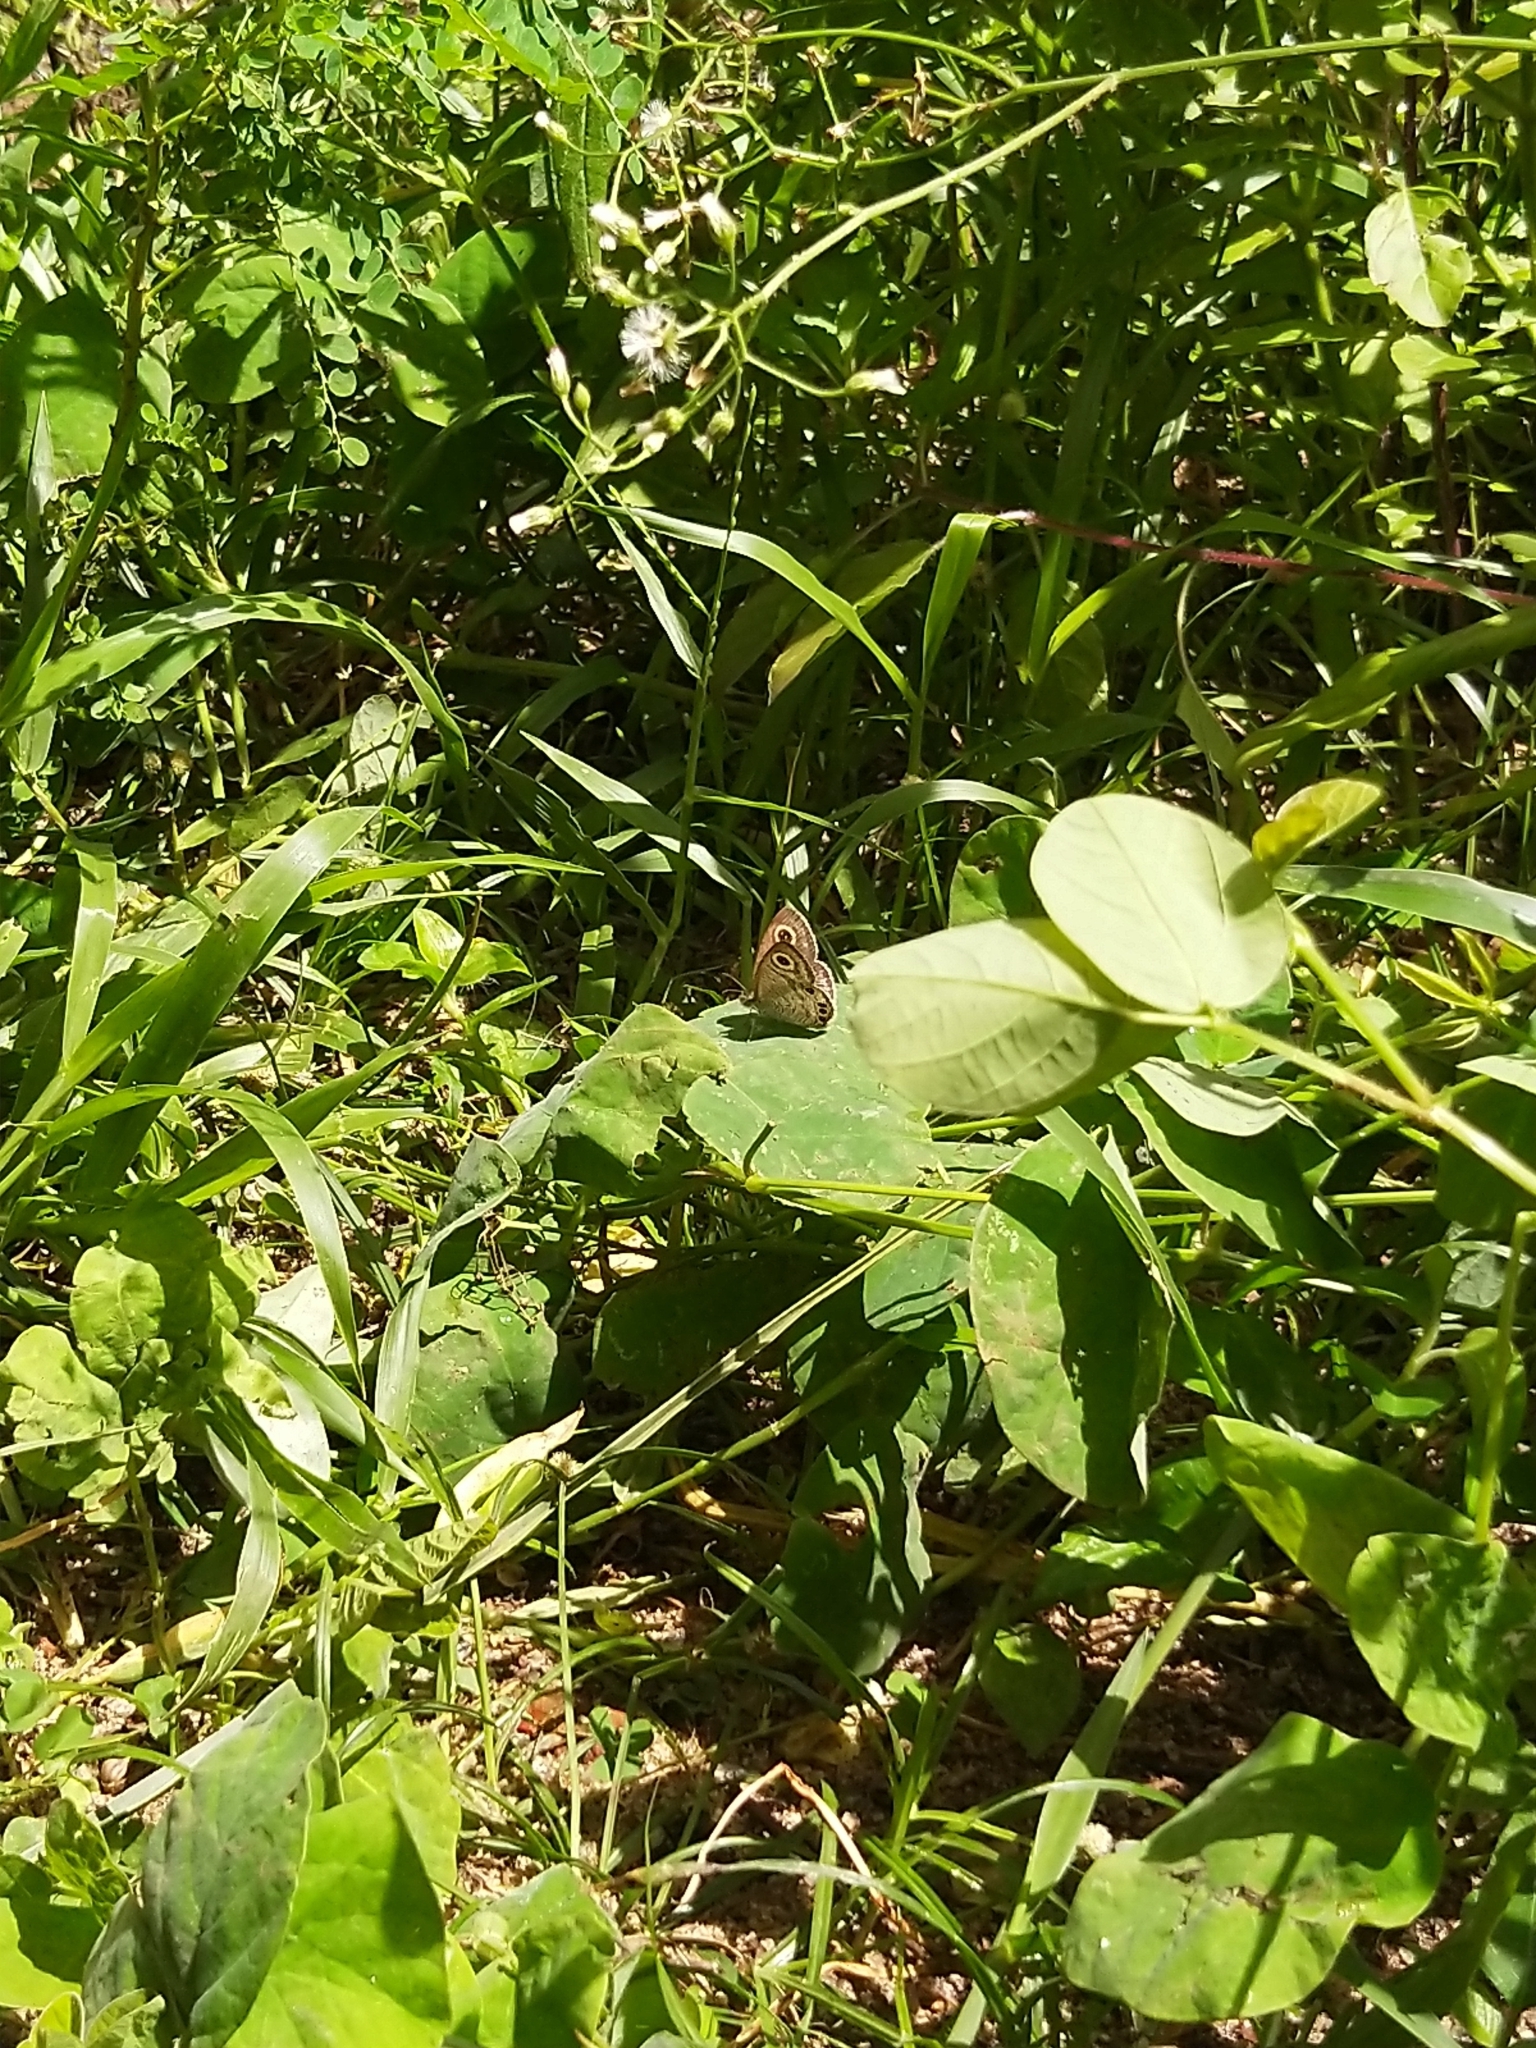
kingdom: Animalia
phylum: Arthropoda
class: Insecta
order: Lepidoptera
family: Nymphalidae
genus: Ypthima
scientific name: Ypthima huebneri
